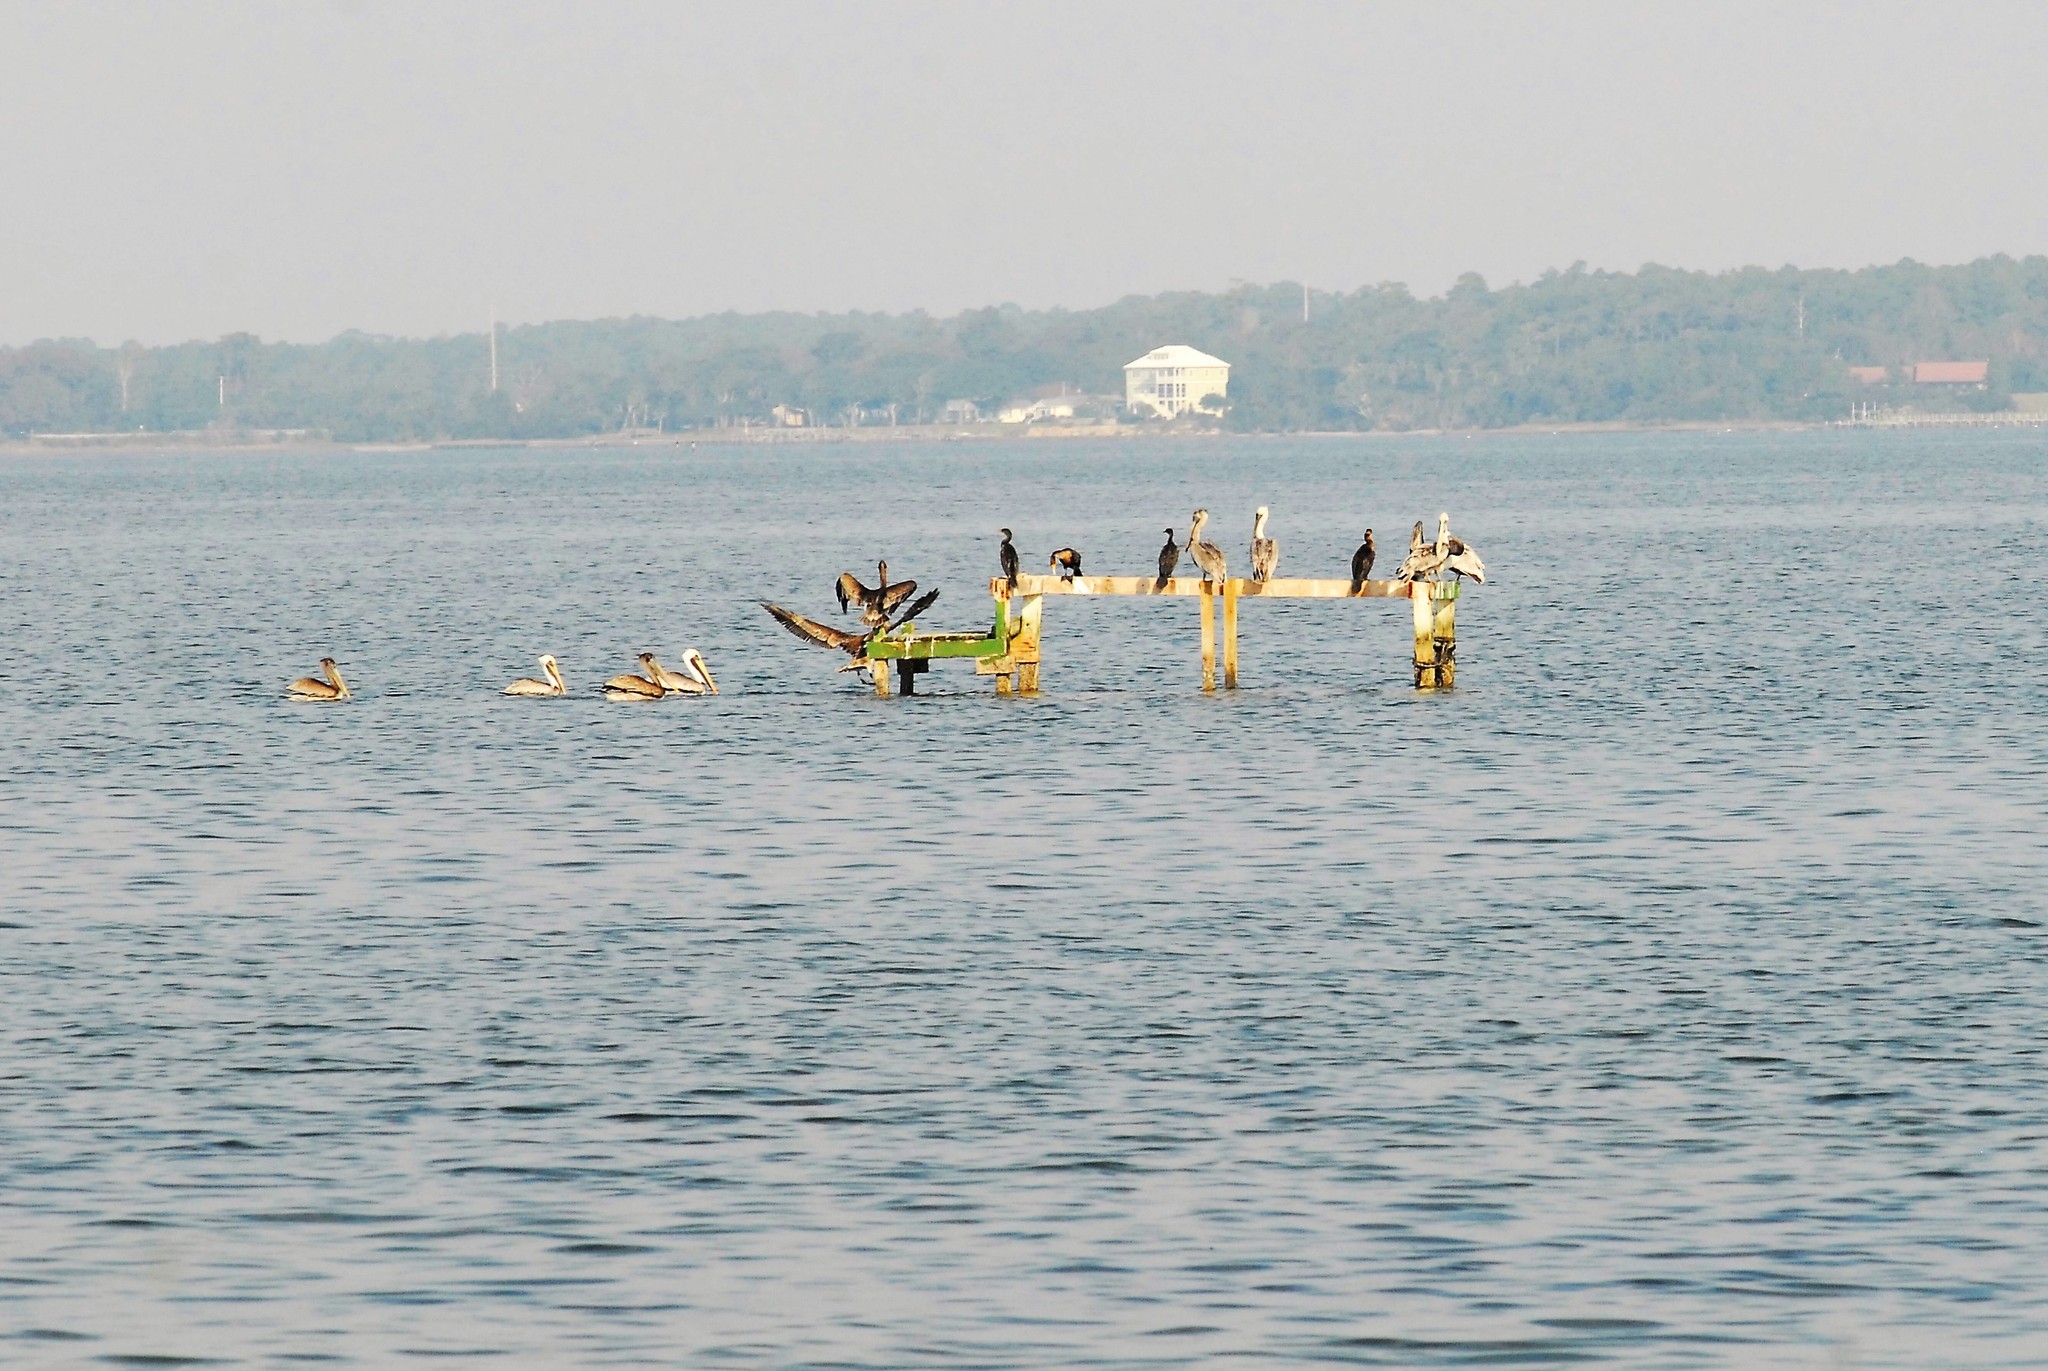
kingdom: Animalia
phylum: Chordata
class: Aves
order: Pelecaniformes
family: Pelecanidae
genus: Pelecanus
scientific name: Pelecanus occidentalis
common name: Brown pelican
